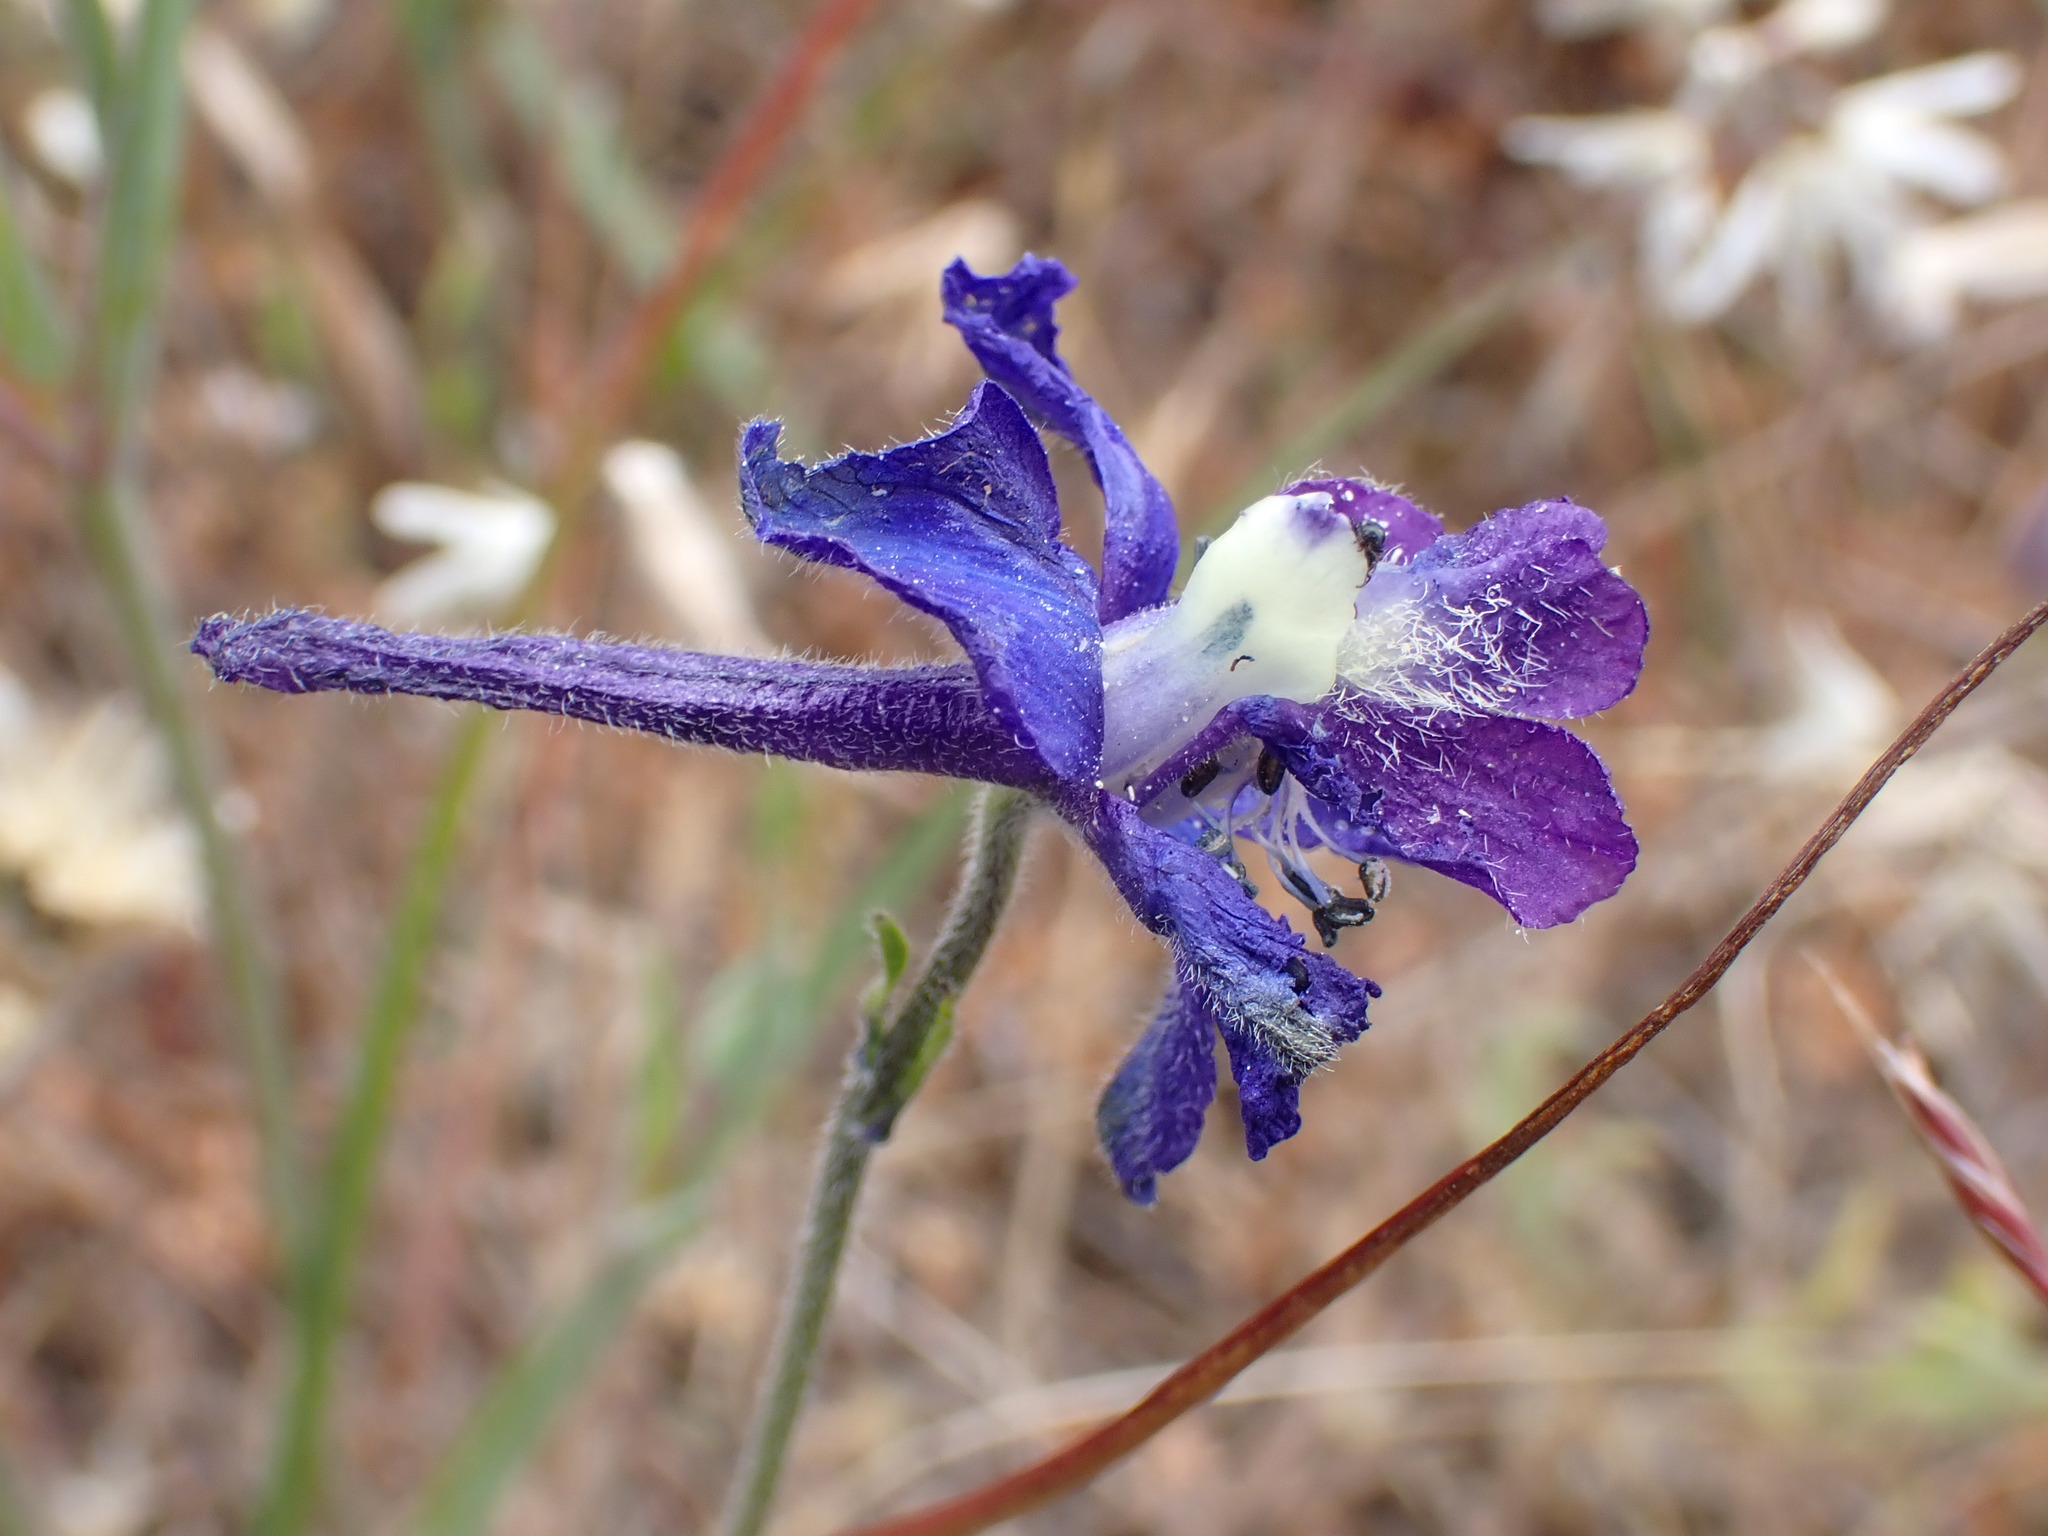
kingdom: Plantae
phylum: Tracheophyta
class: Magnoliopsida
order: Ranunculales
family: Ranunculaceae
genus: Delphinium
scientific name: Delphinium variegatum
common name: Royal larkspur
